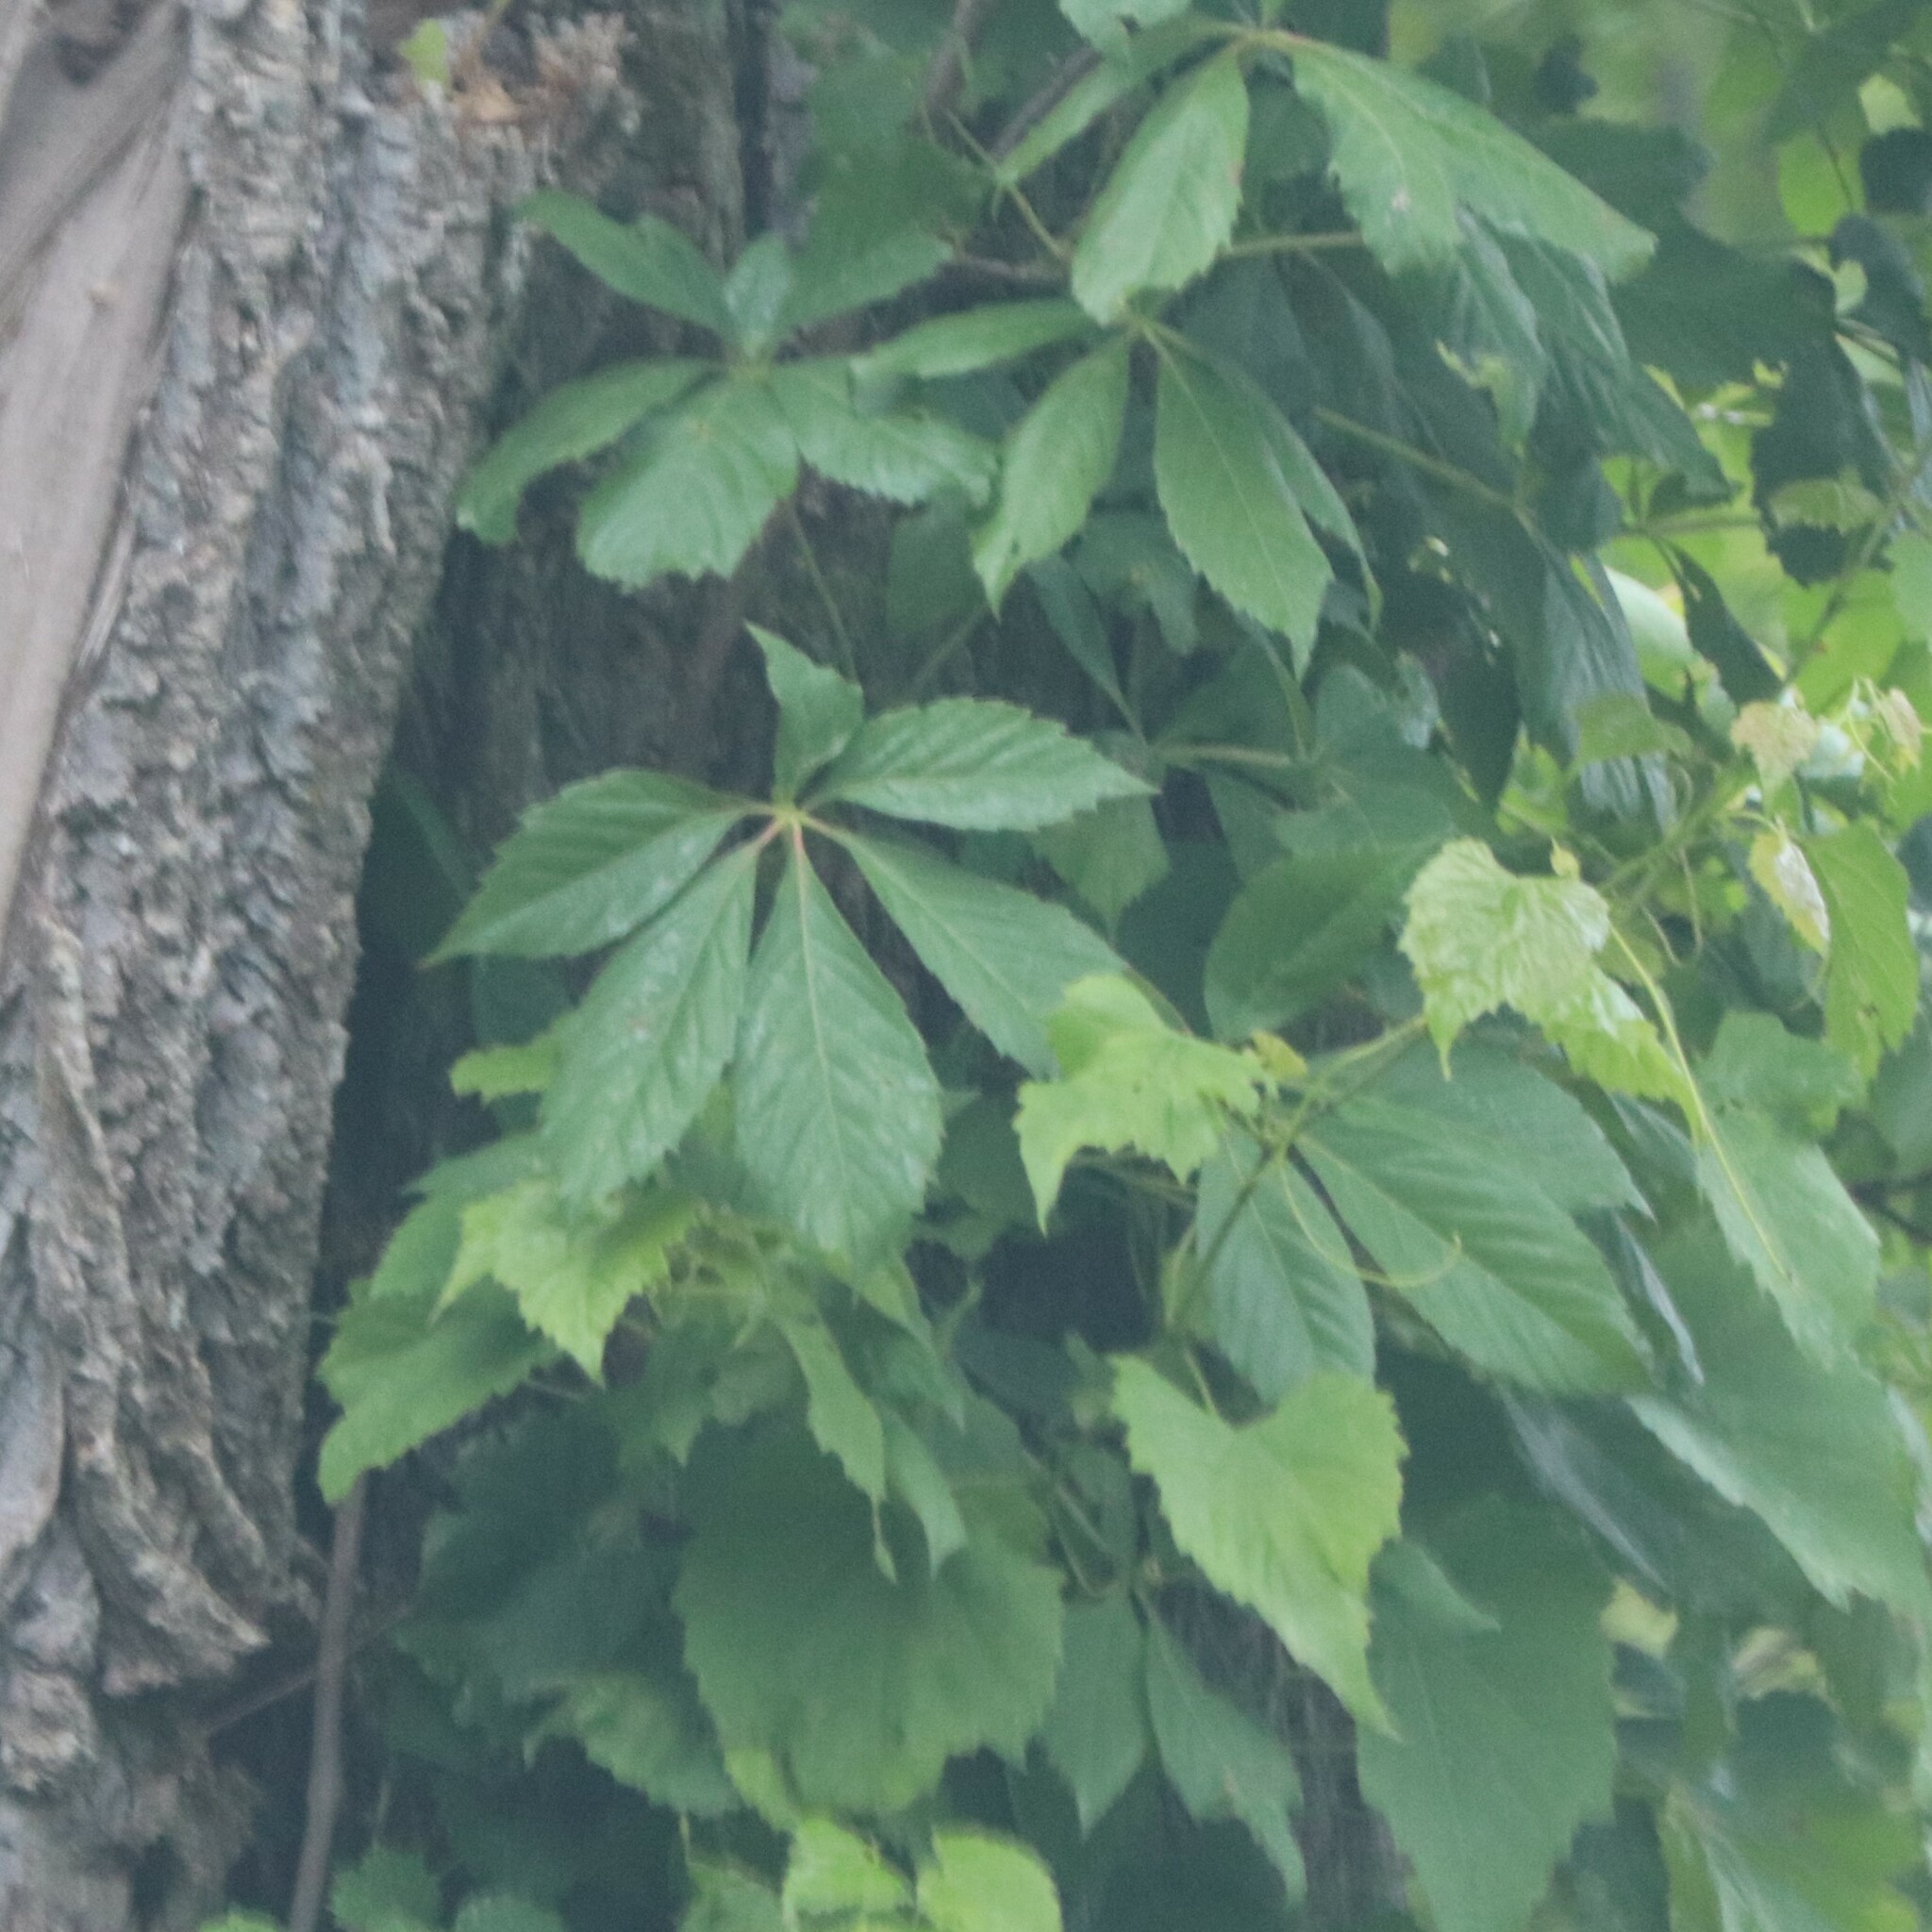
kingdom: Plantae
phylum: Tracheophyta
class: Magnoliopsida
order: Vitales
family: Vitaceae
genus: Parthenocissus
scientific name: Parthenocissus quinquefolia
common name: Virginia-creeper
